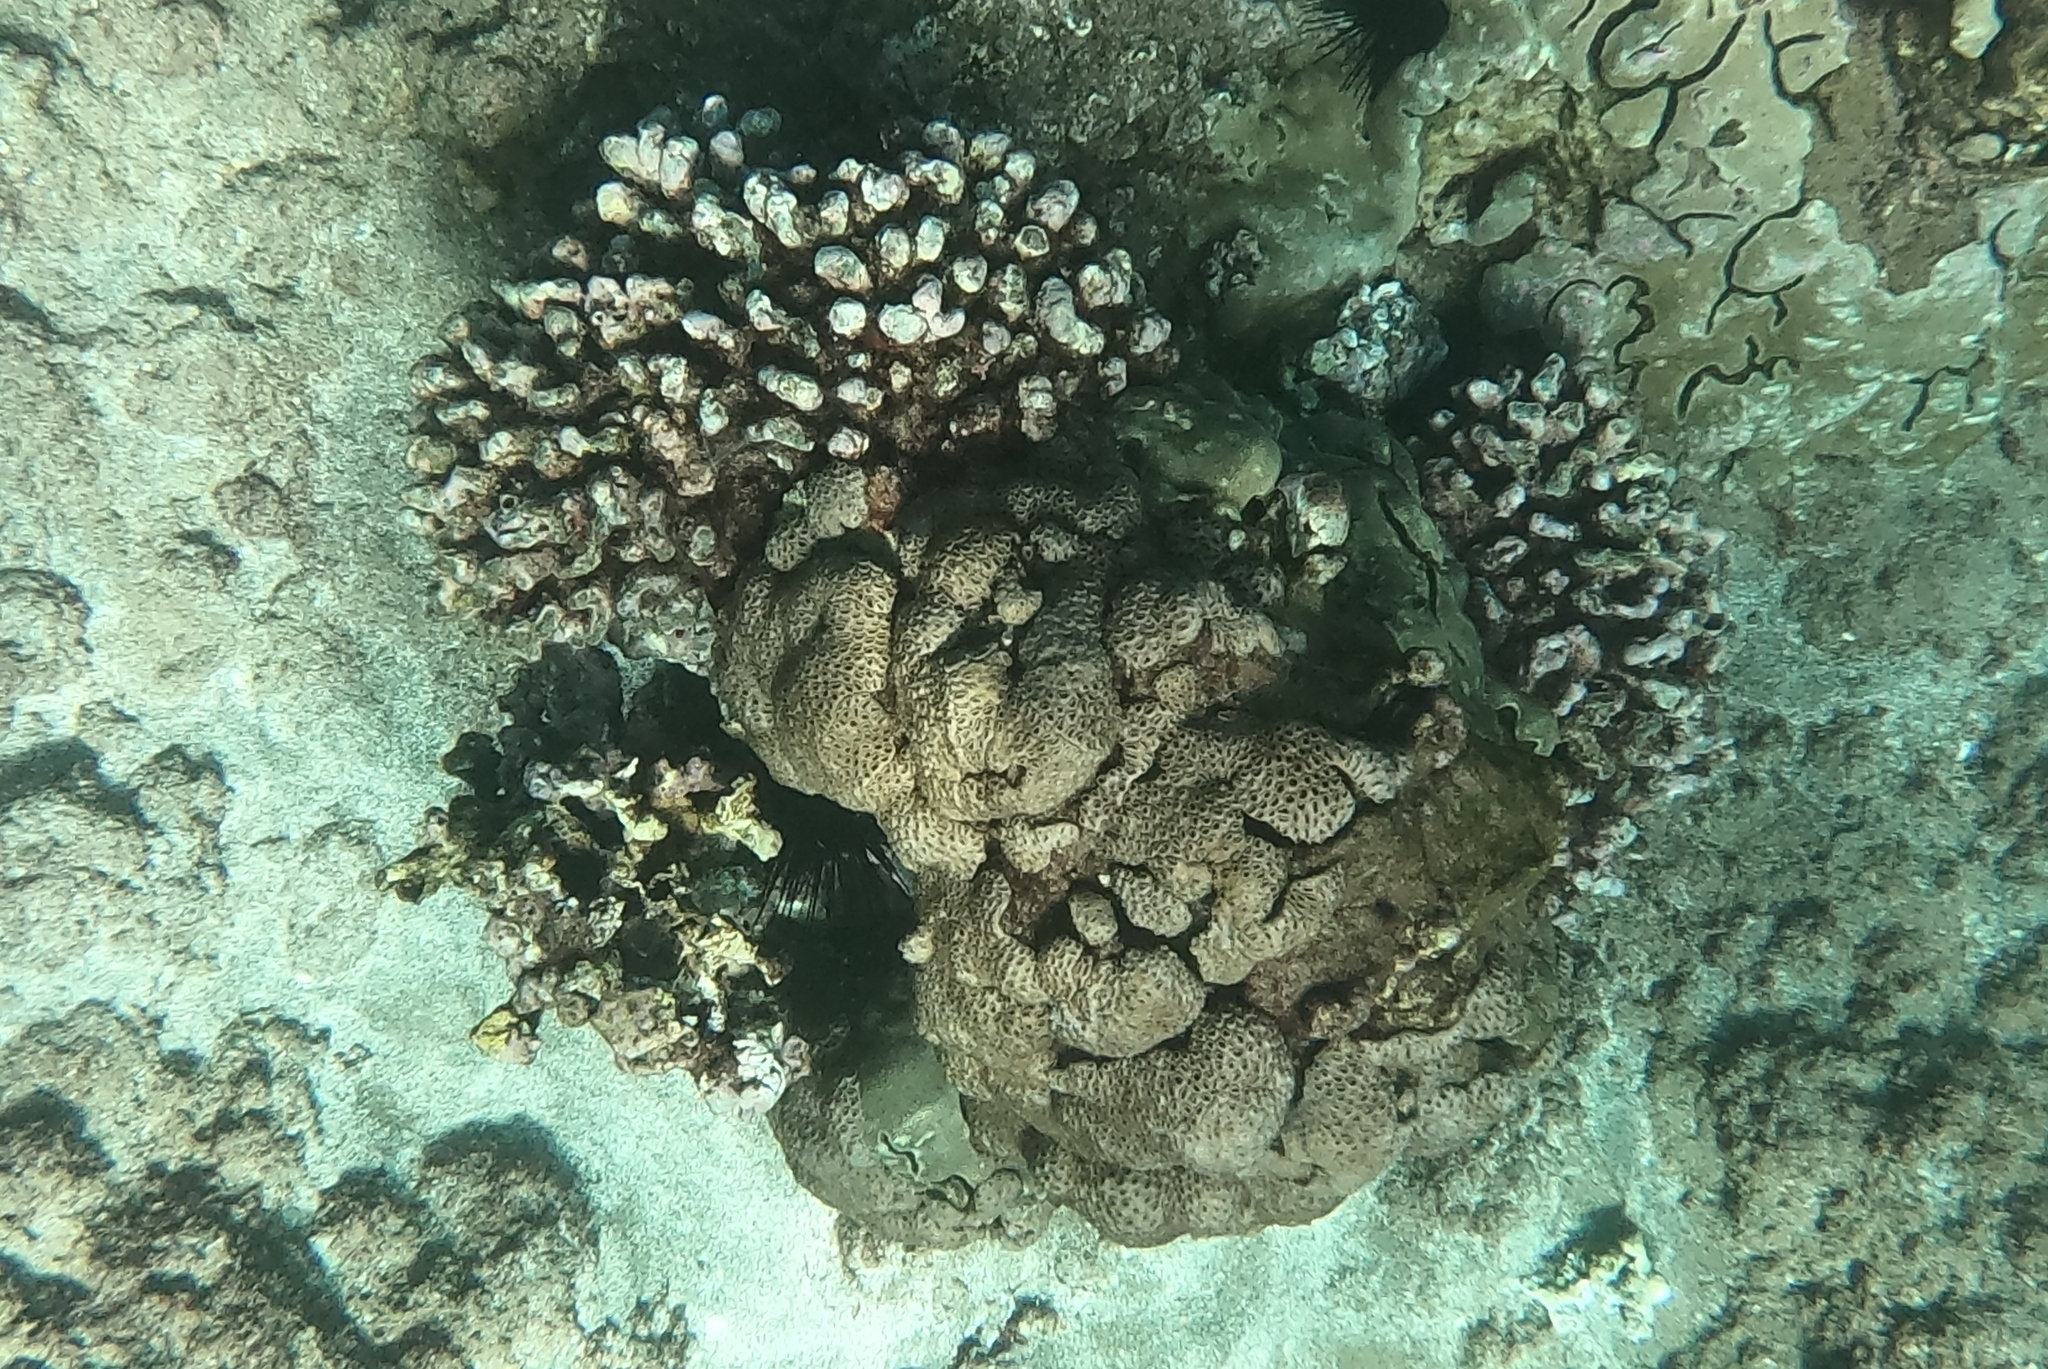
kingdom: Animalia
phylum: Cnidaria
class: Anthozoa
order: Zoantharia
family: Sphenopidae
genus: Palythoa
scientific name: Palythoa tuberculosa
